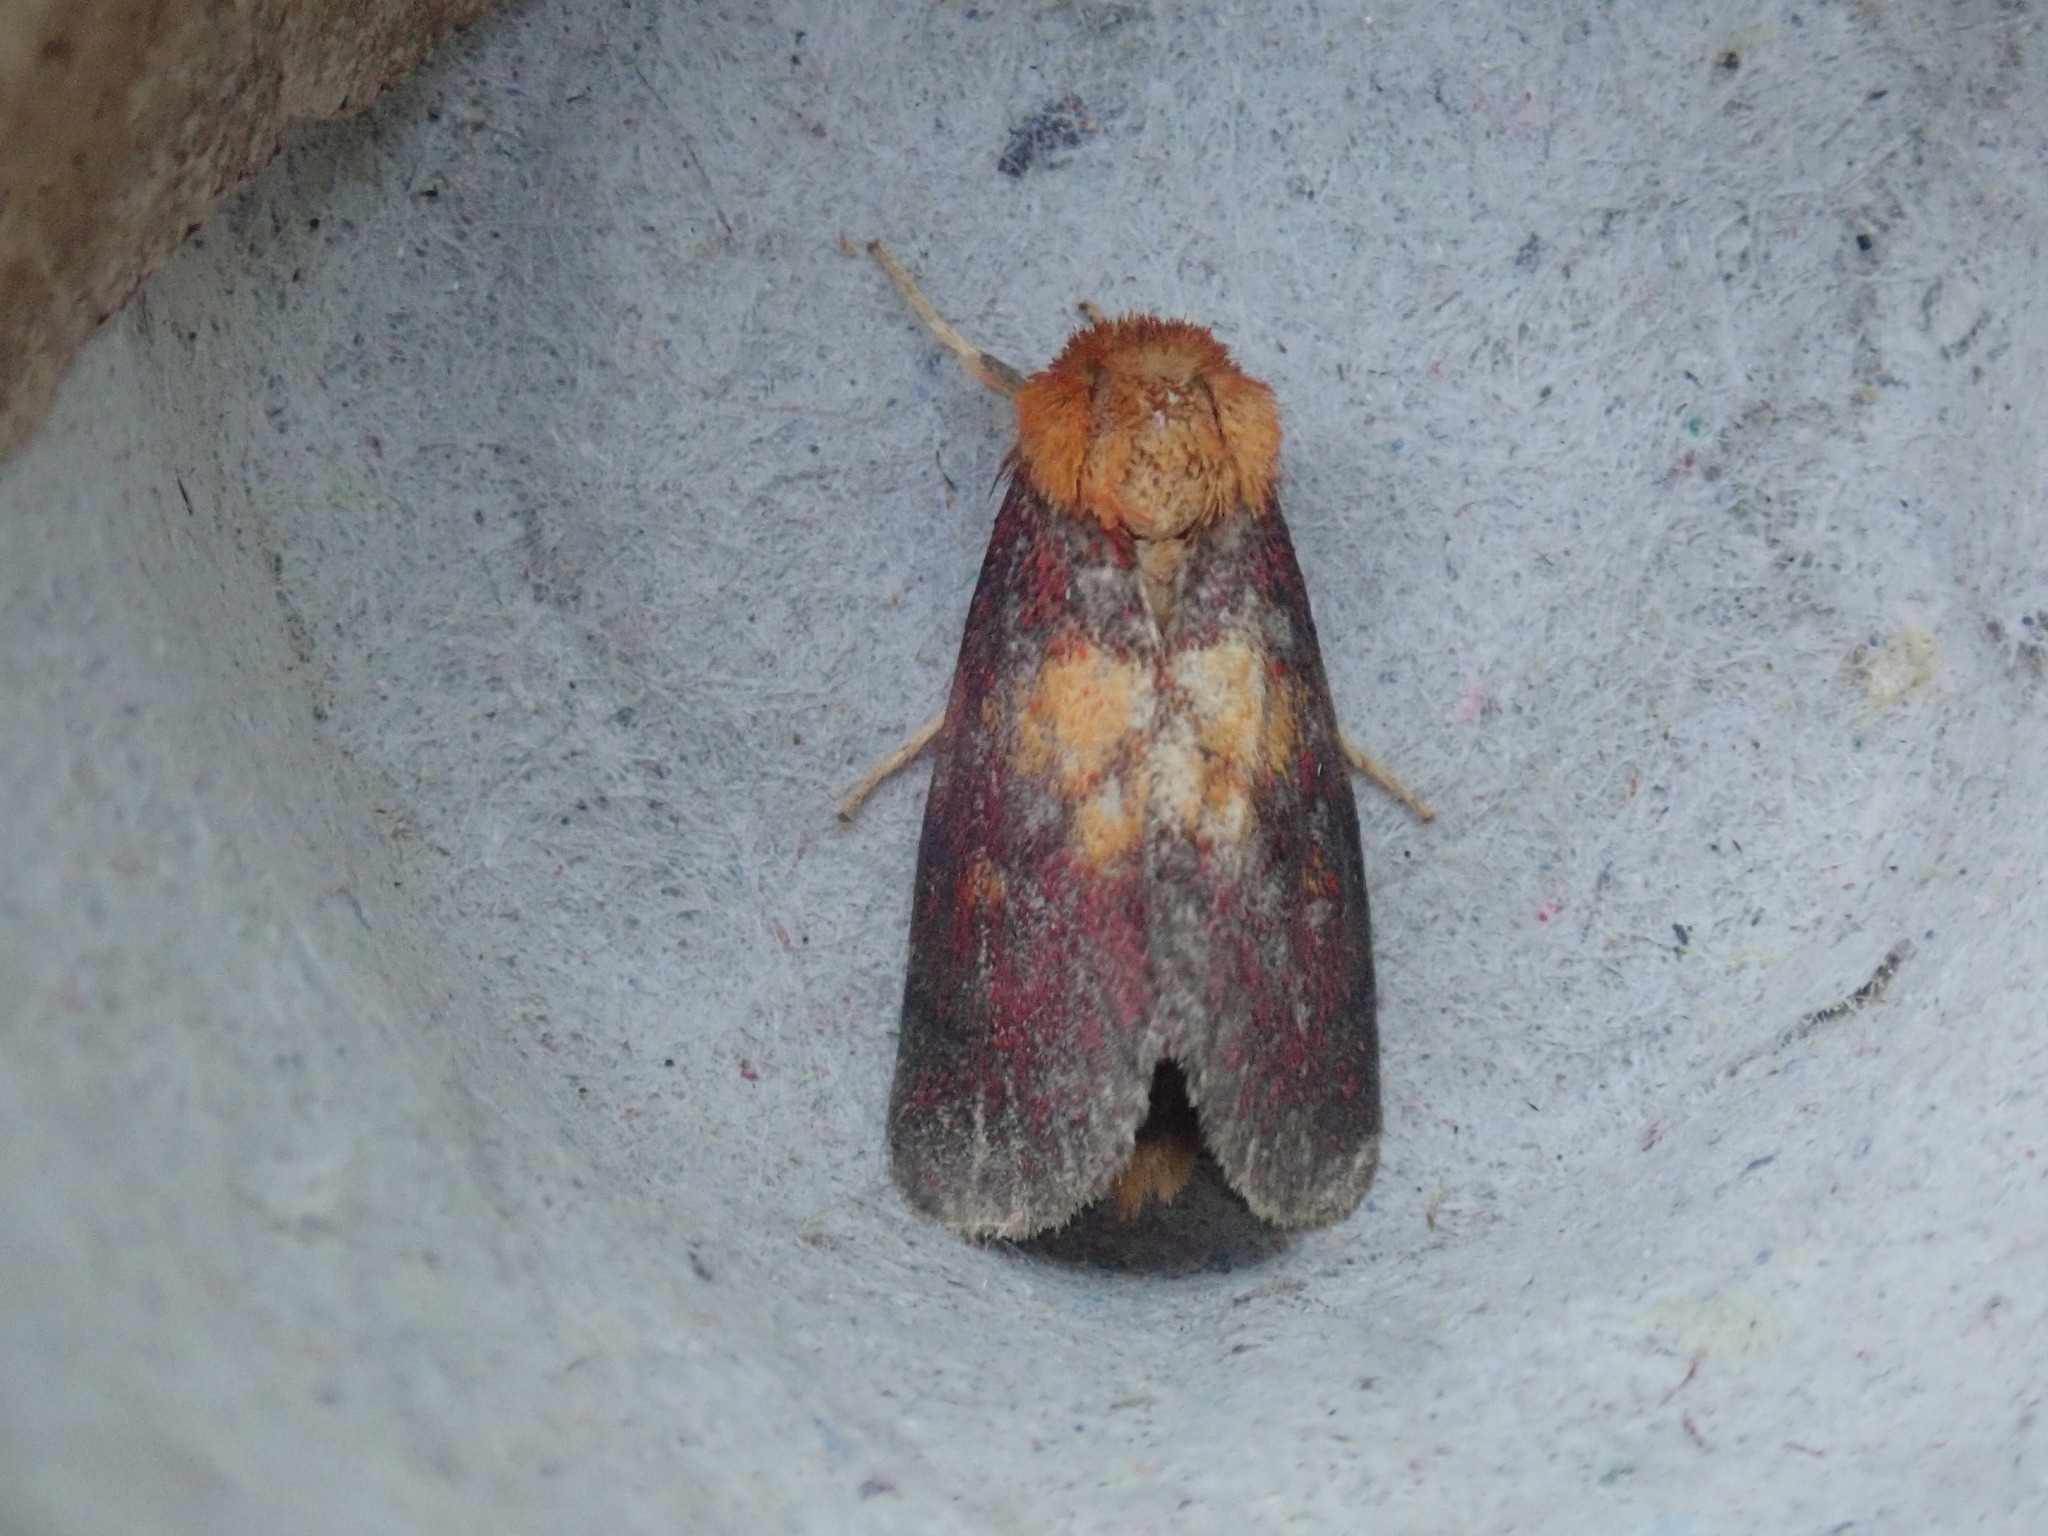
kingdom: Animalia
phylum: Arthropoda
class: Insecta
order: Lepidoptera
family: Noctuidae
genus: Exyra
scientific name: Exyra fax
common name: Pitcher plant moth
